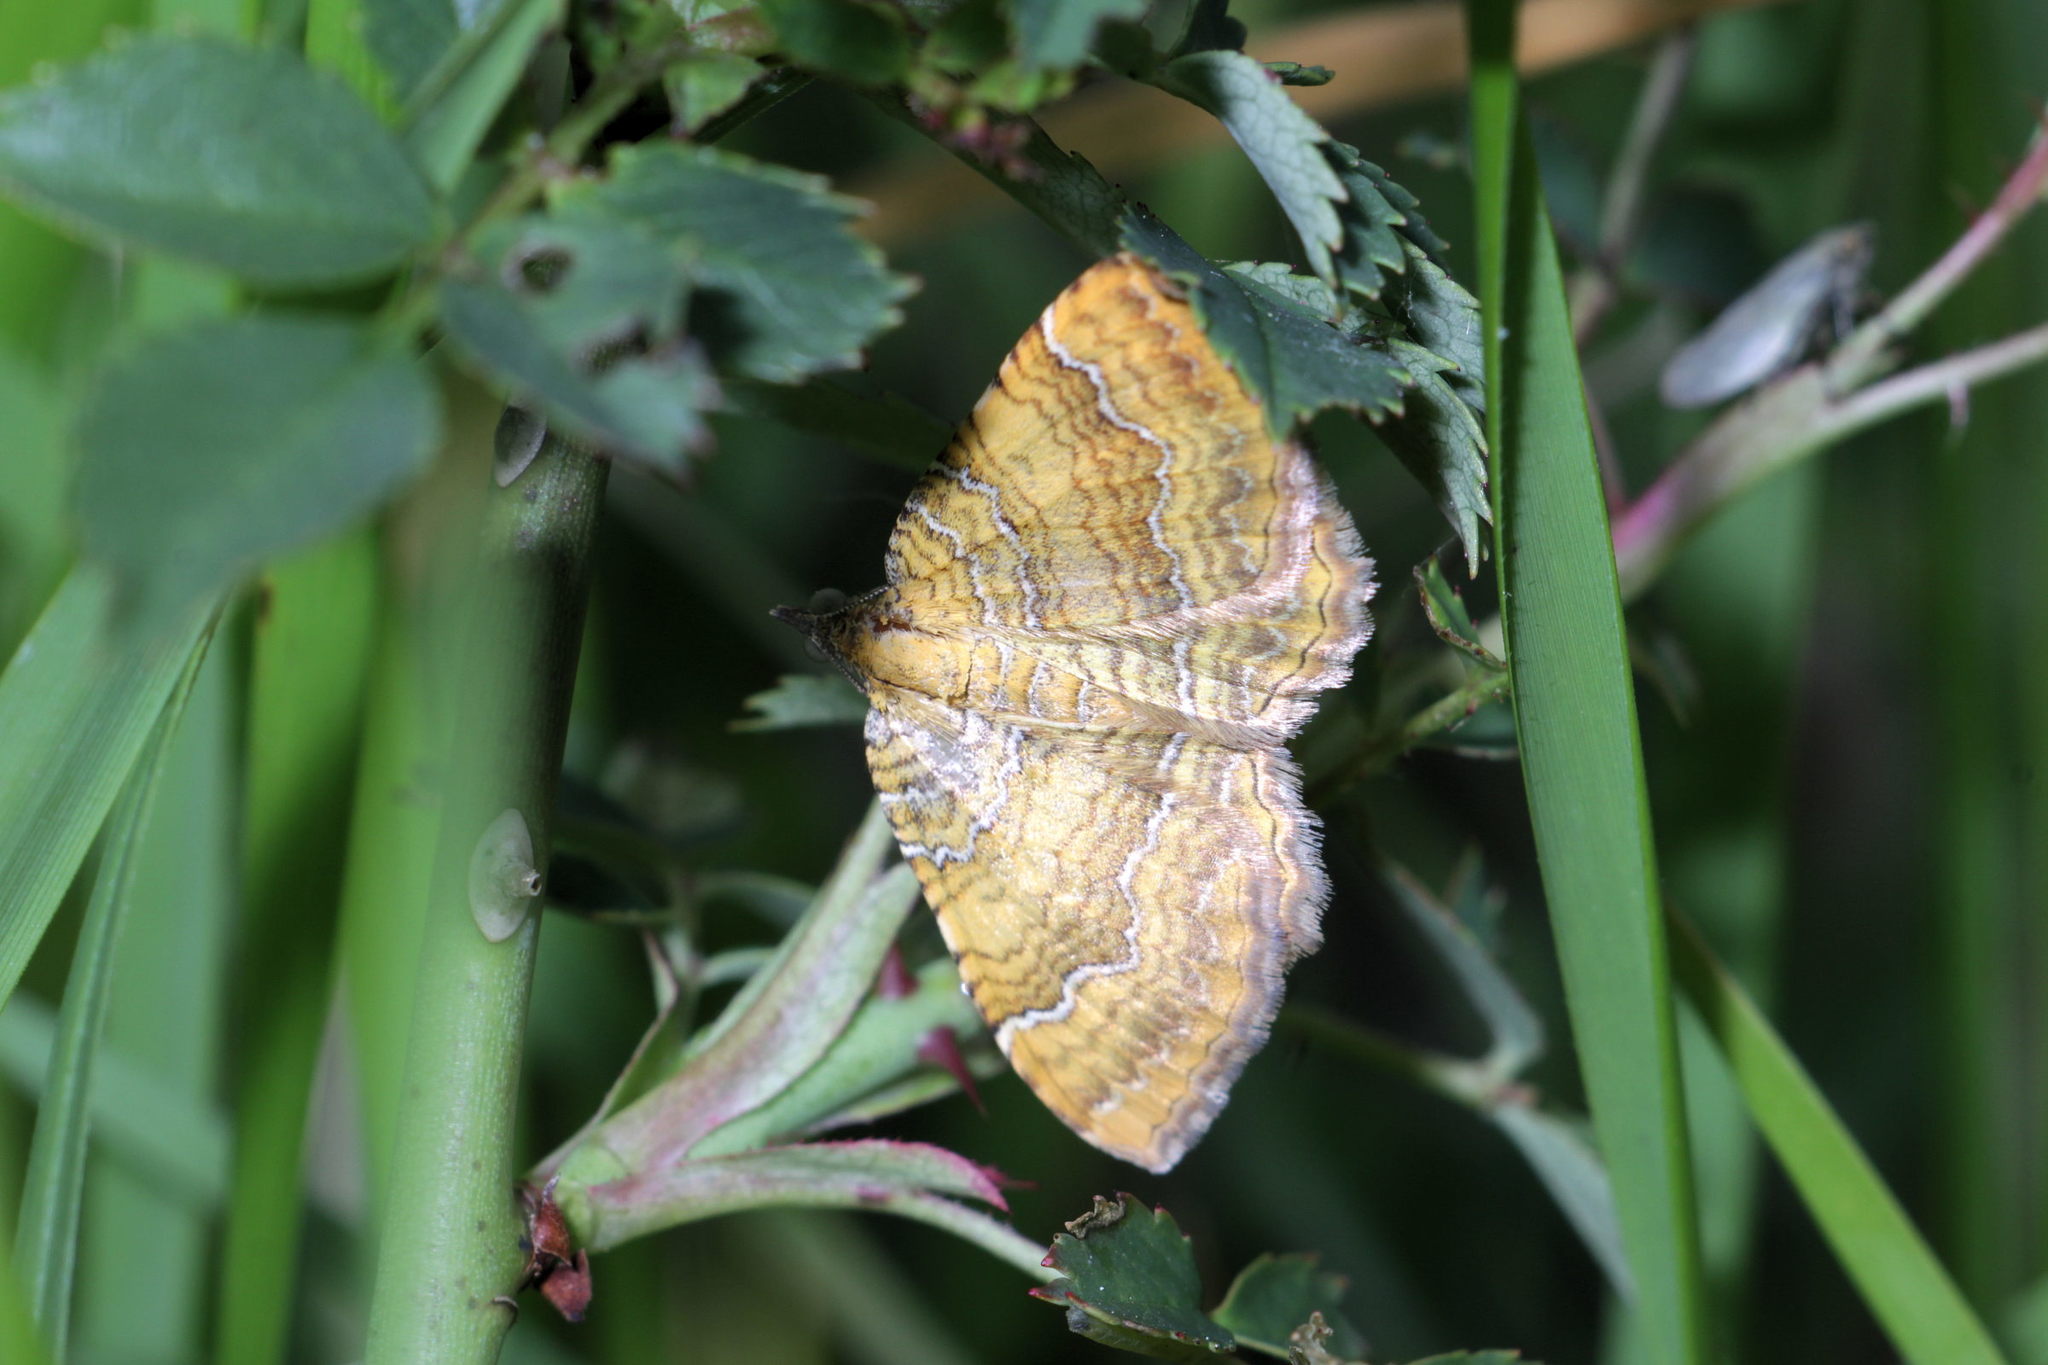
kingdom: Animalia
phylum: Arthropoda
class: Insecta
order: Lepidoptera
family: Geometridae
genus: Camptogramma
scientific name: Camptogramma bilineata
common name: Yellow shell
